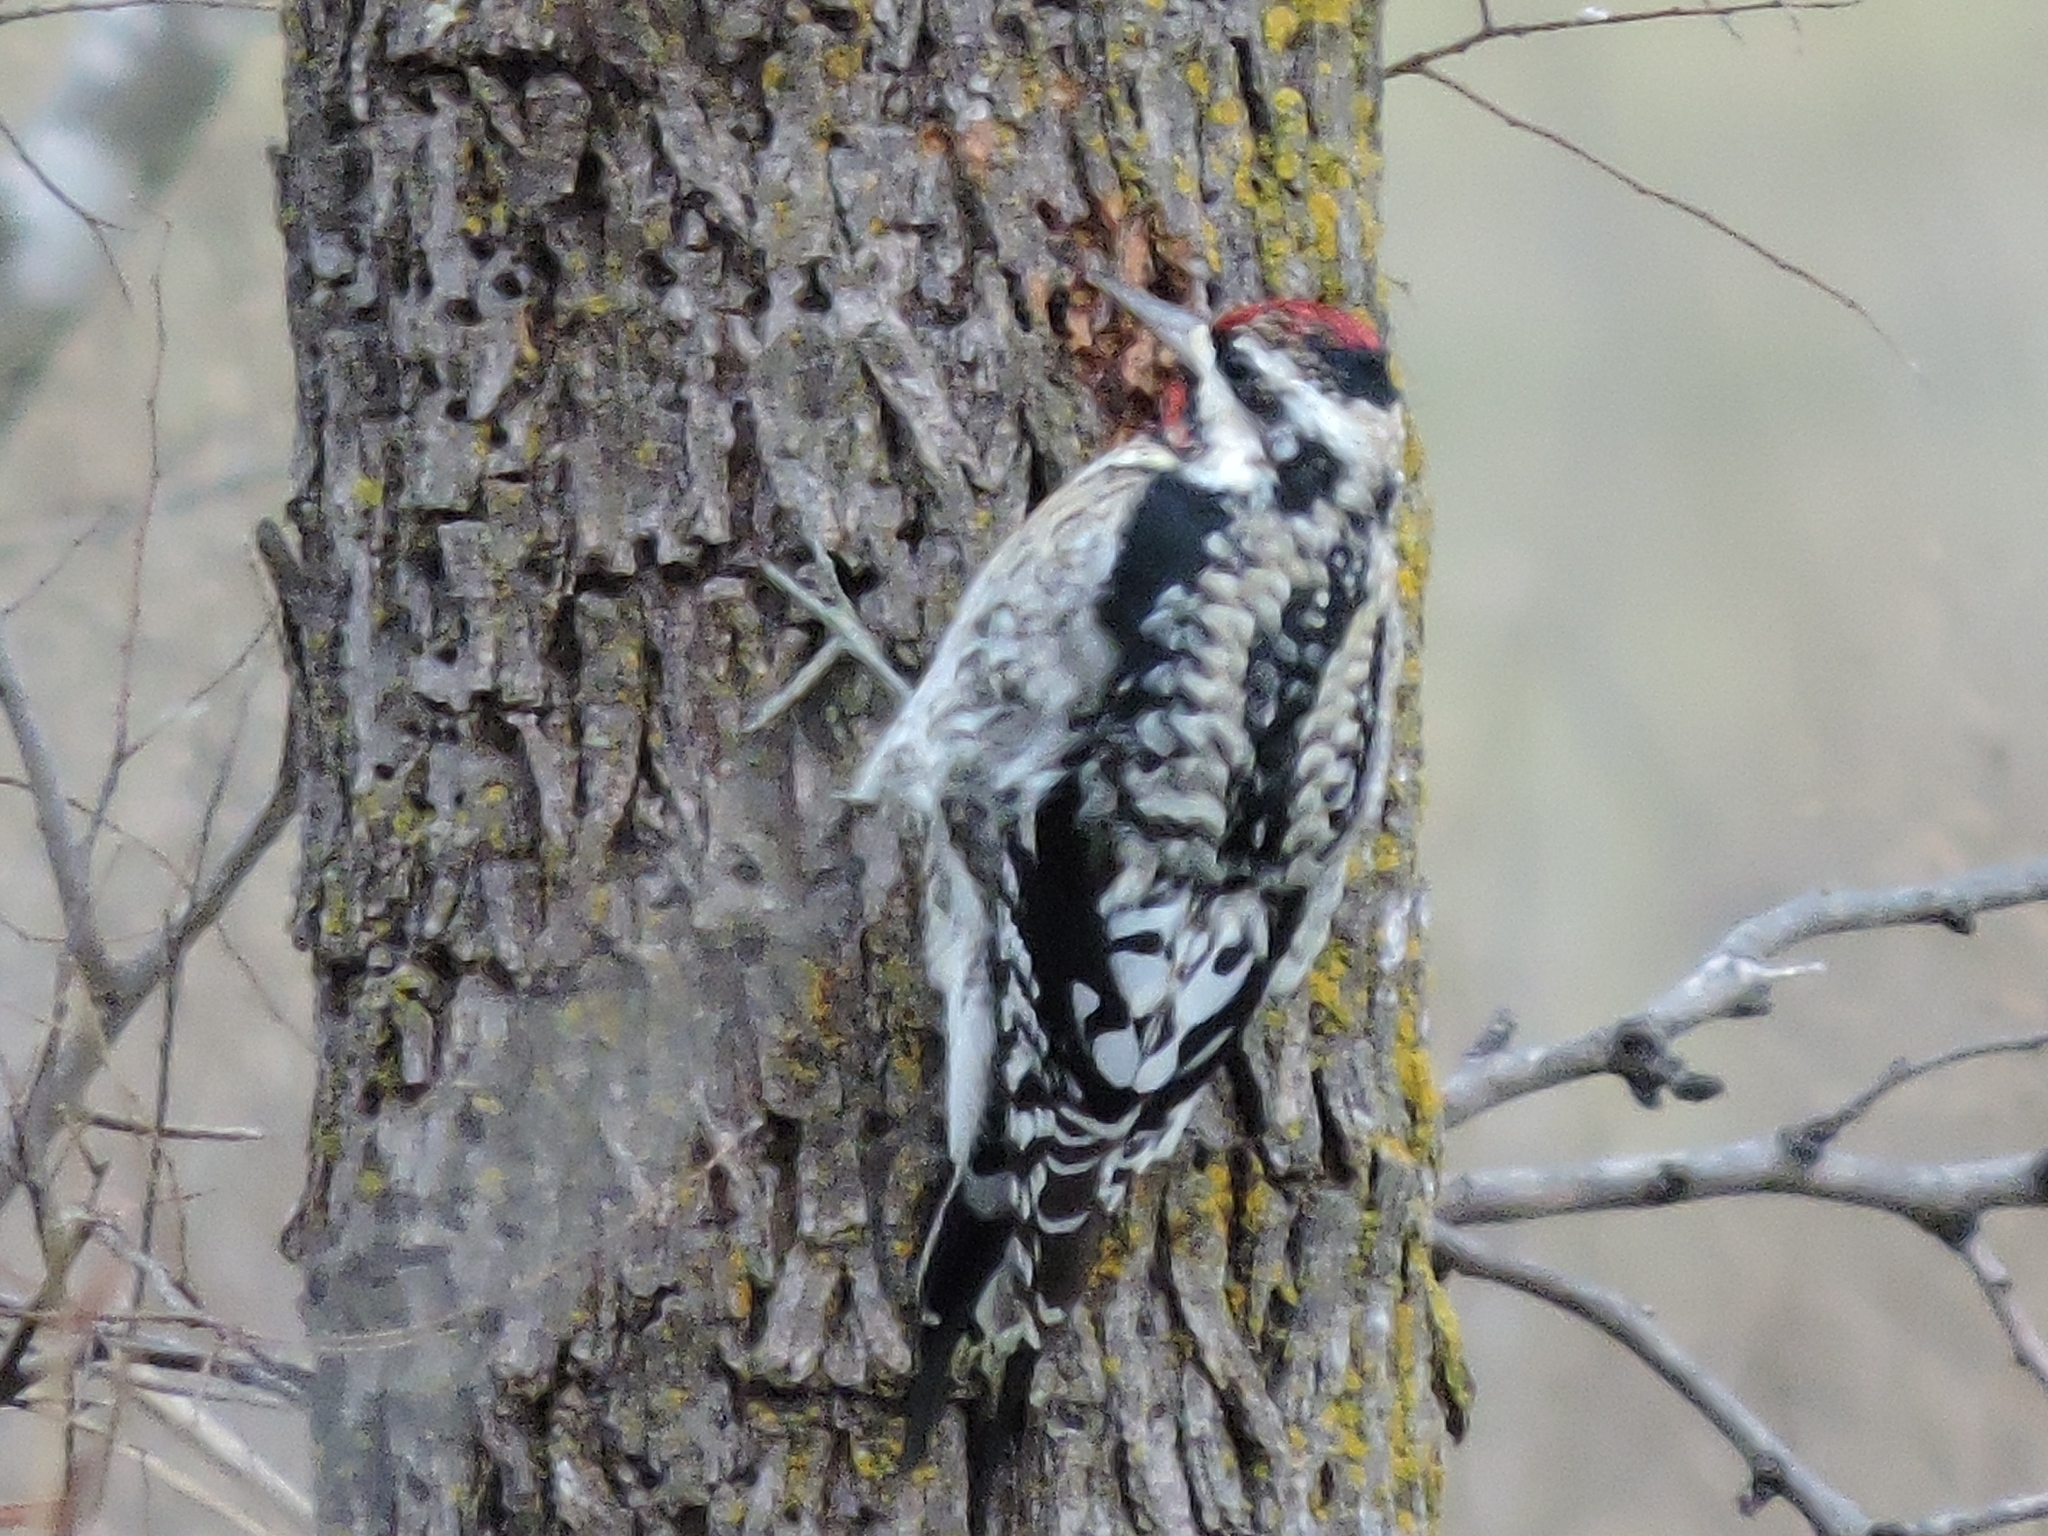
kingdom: Animalia
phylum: Chordata
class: Aves
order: Piciformes
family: Picidae
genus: Sphyrapicus
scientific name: Sphyrapicus varius
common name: Yellow-bellied sapsucker
